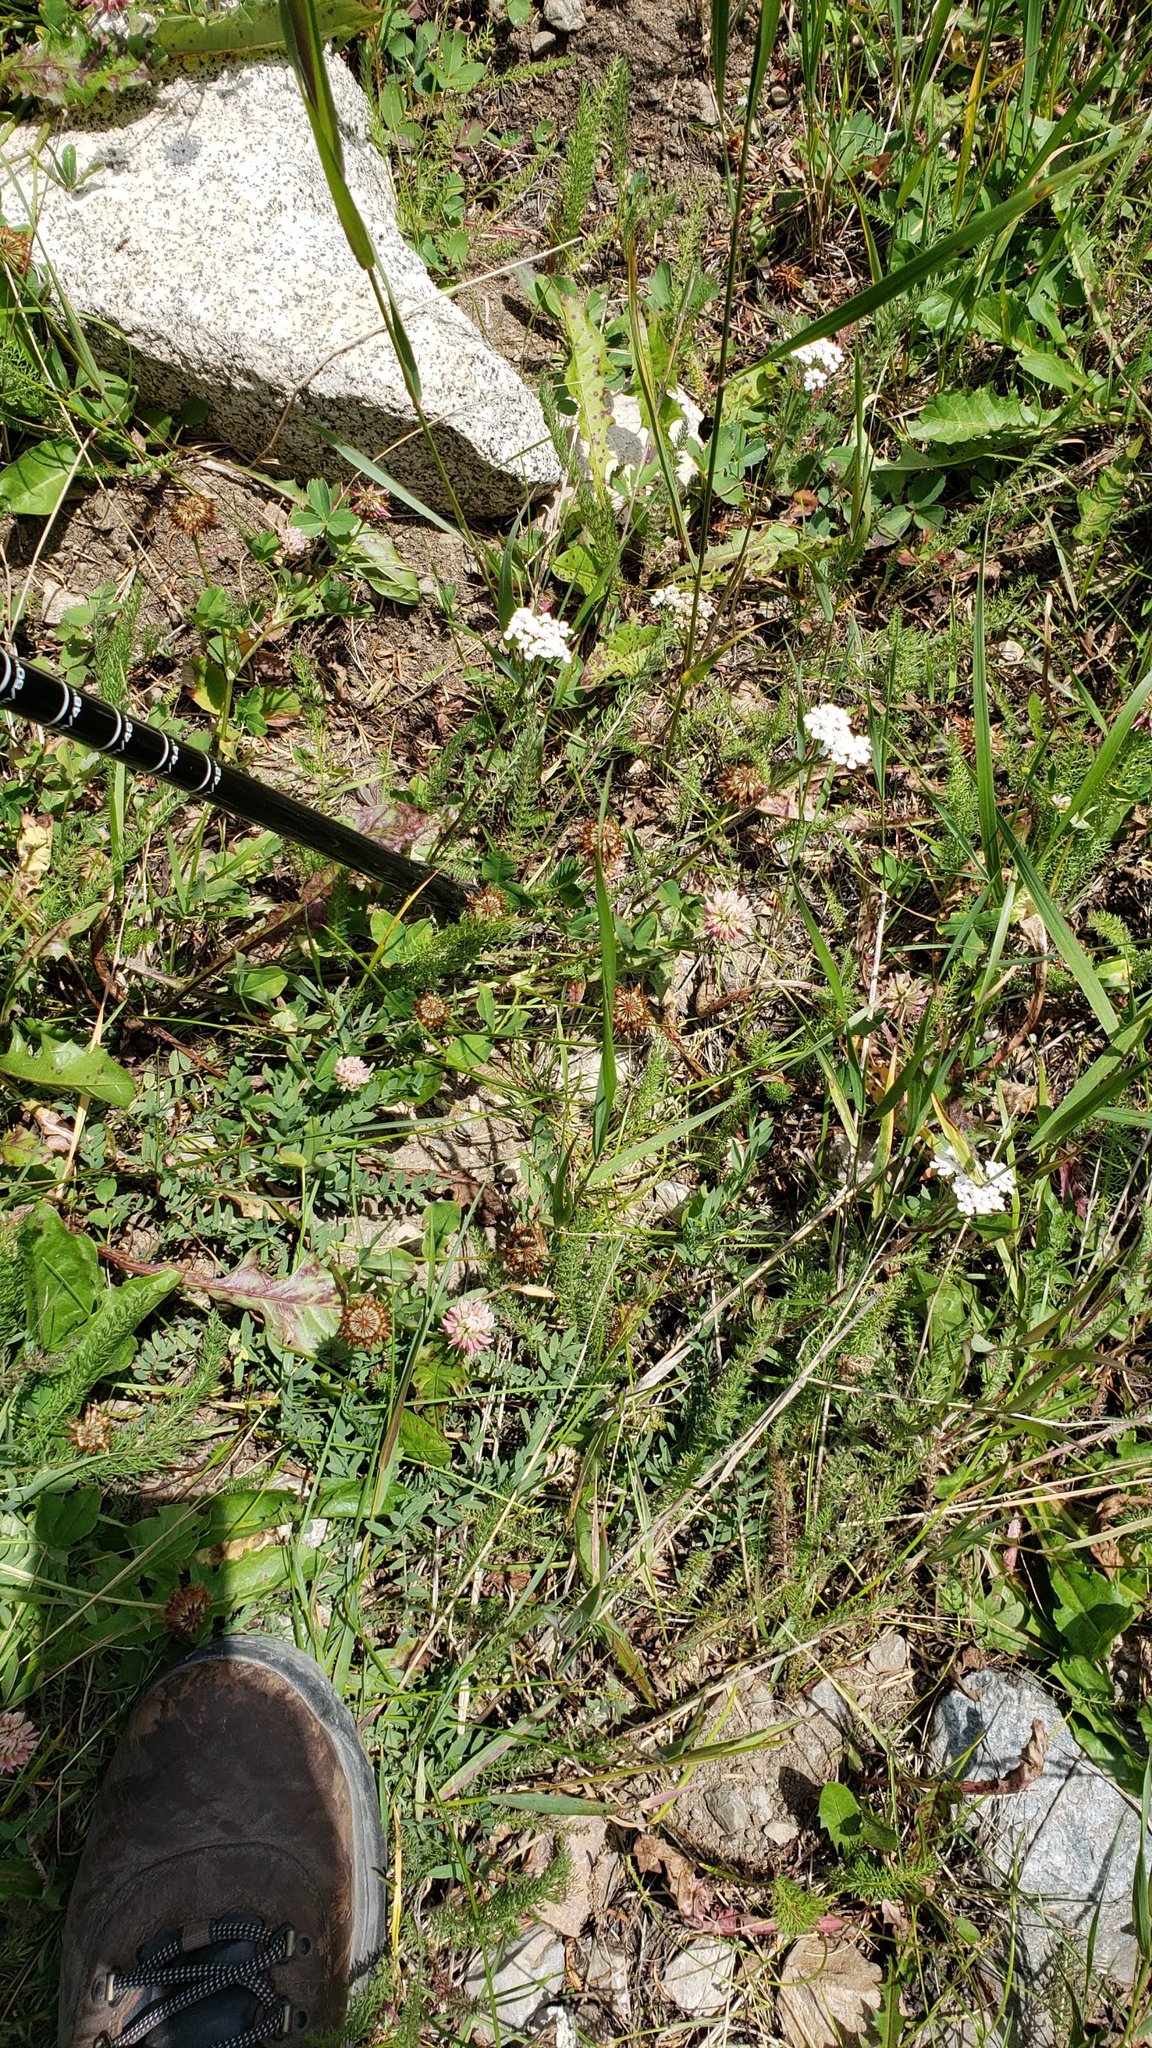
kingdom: Plantae
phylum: Tracheophyta
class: Magnoliopsida
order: Asterales
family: Asteraceae
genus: Achillea
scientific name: Achillea millefolium
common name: Yarrow
